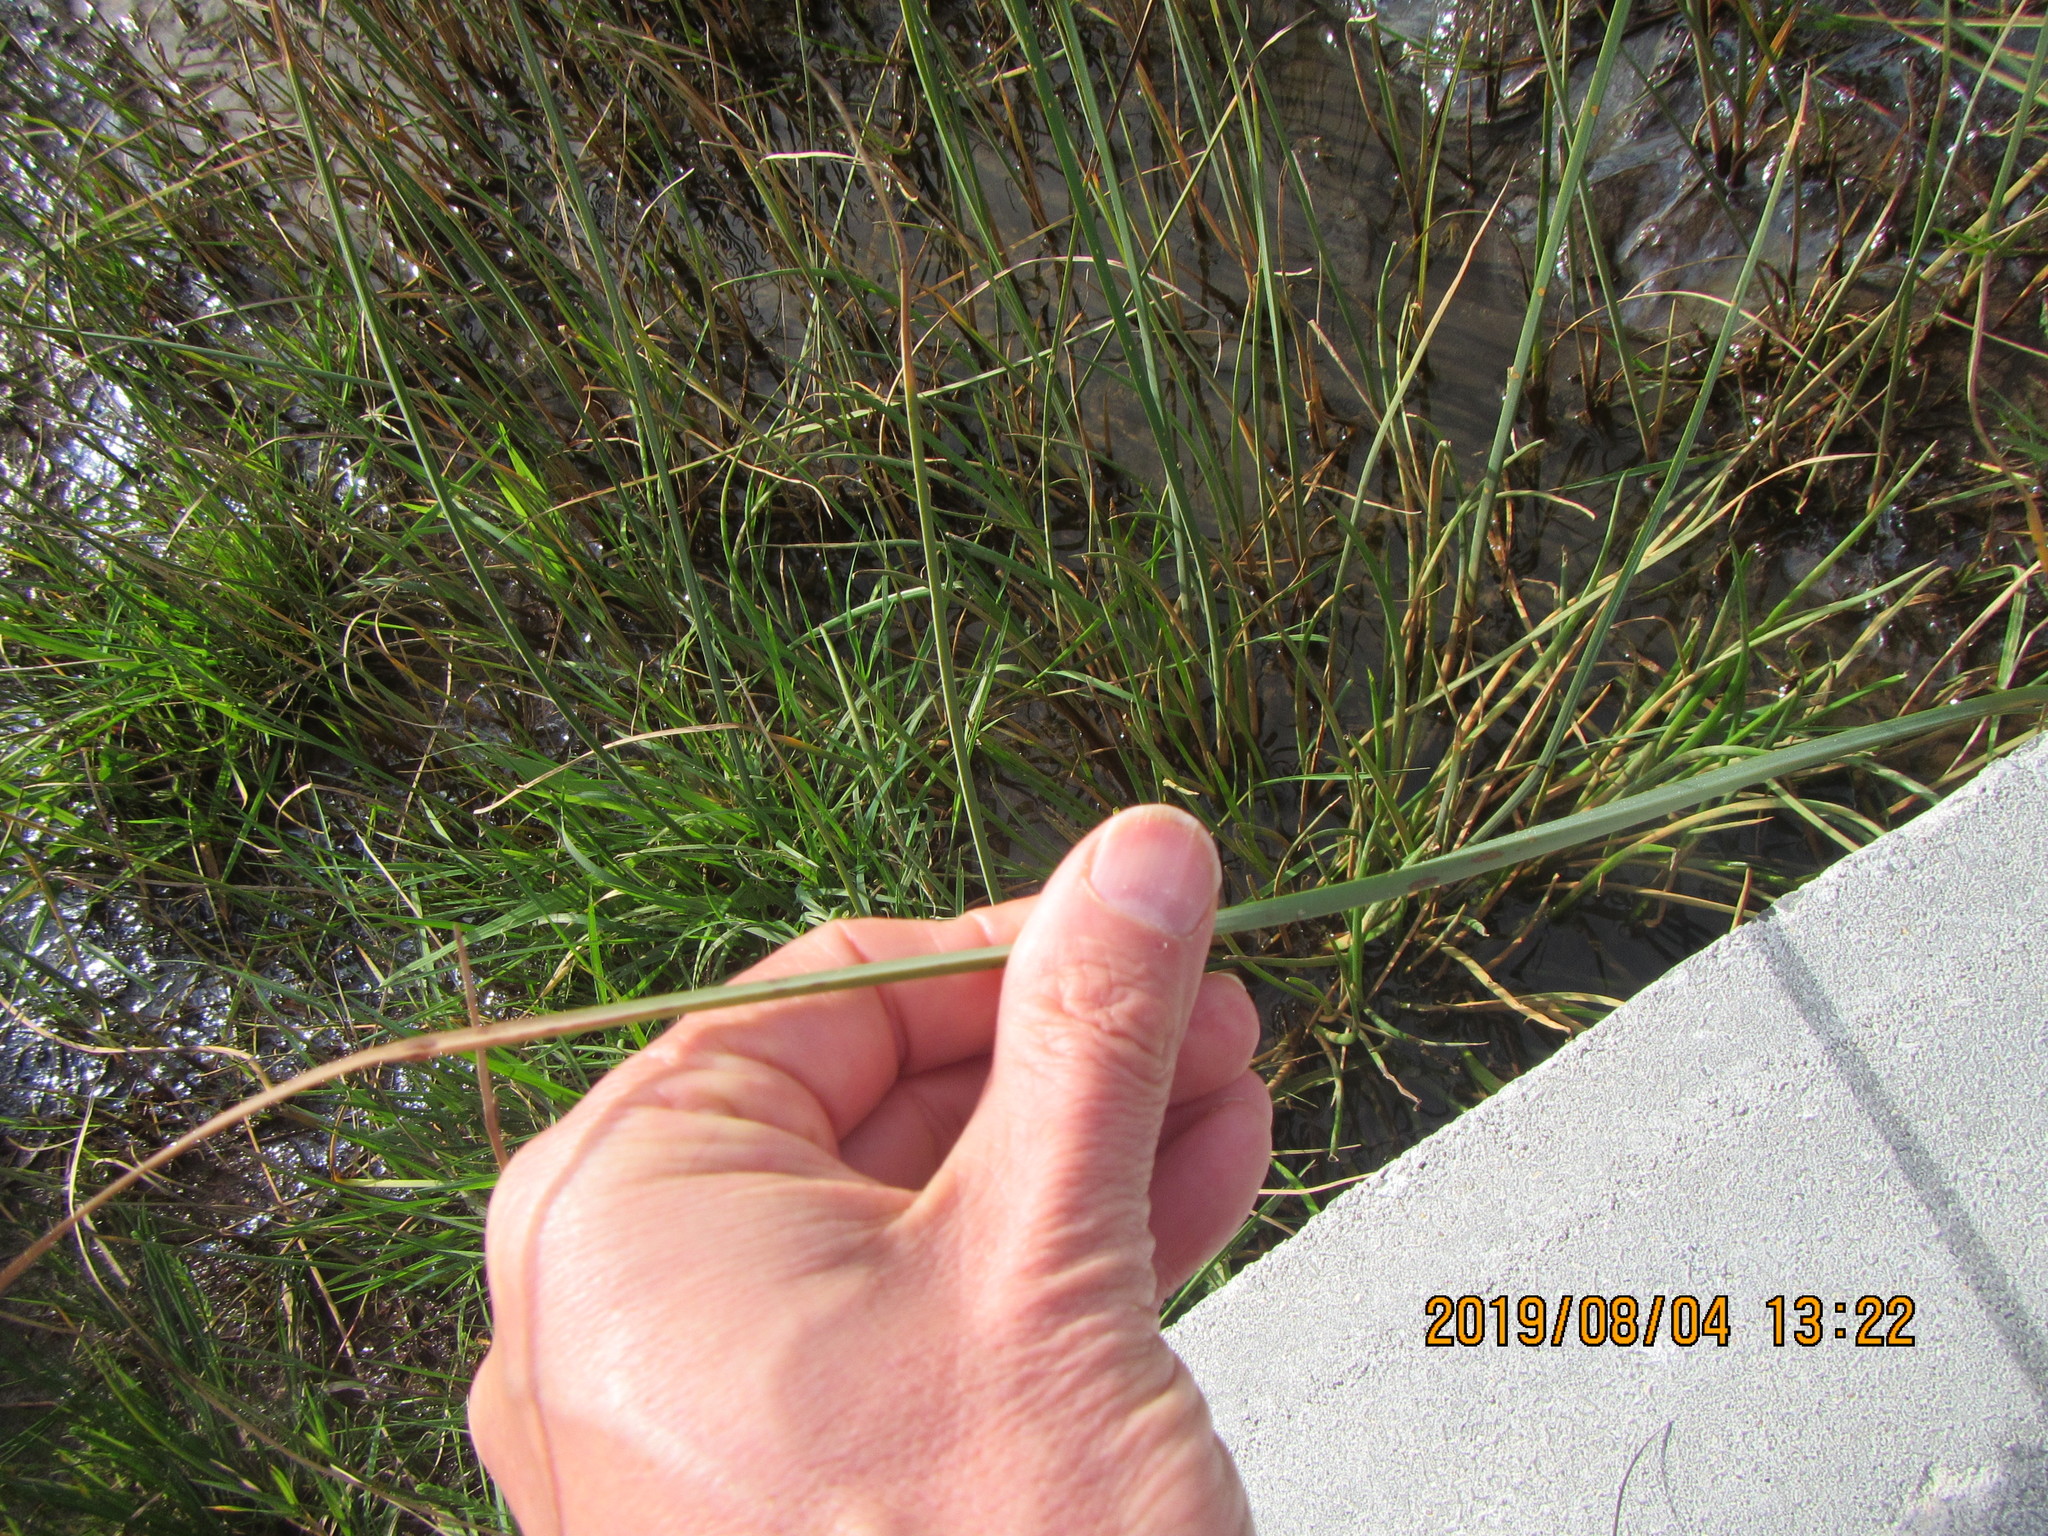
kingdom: Plantae
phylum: Tracheophyta
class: Liliopsida
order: Poales
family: Cyperaceae
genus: Schoenoplectus
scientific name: Schoenoplectus pungens
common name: Sharp club-rush
